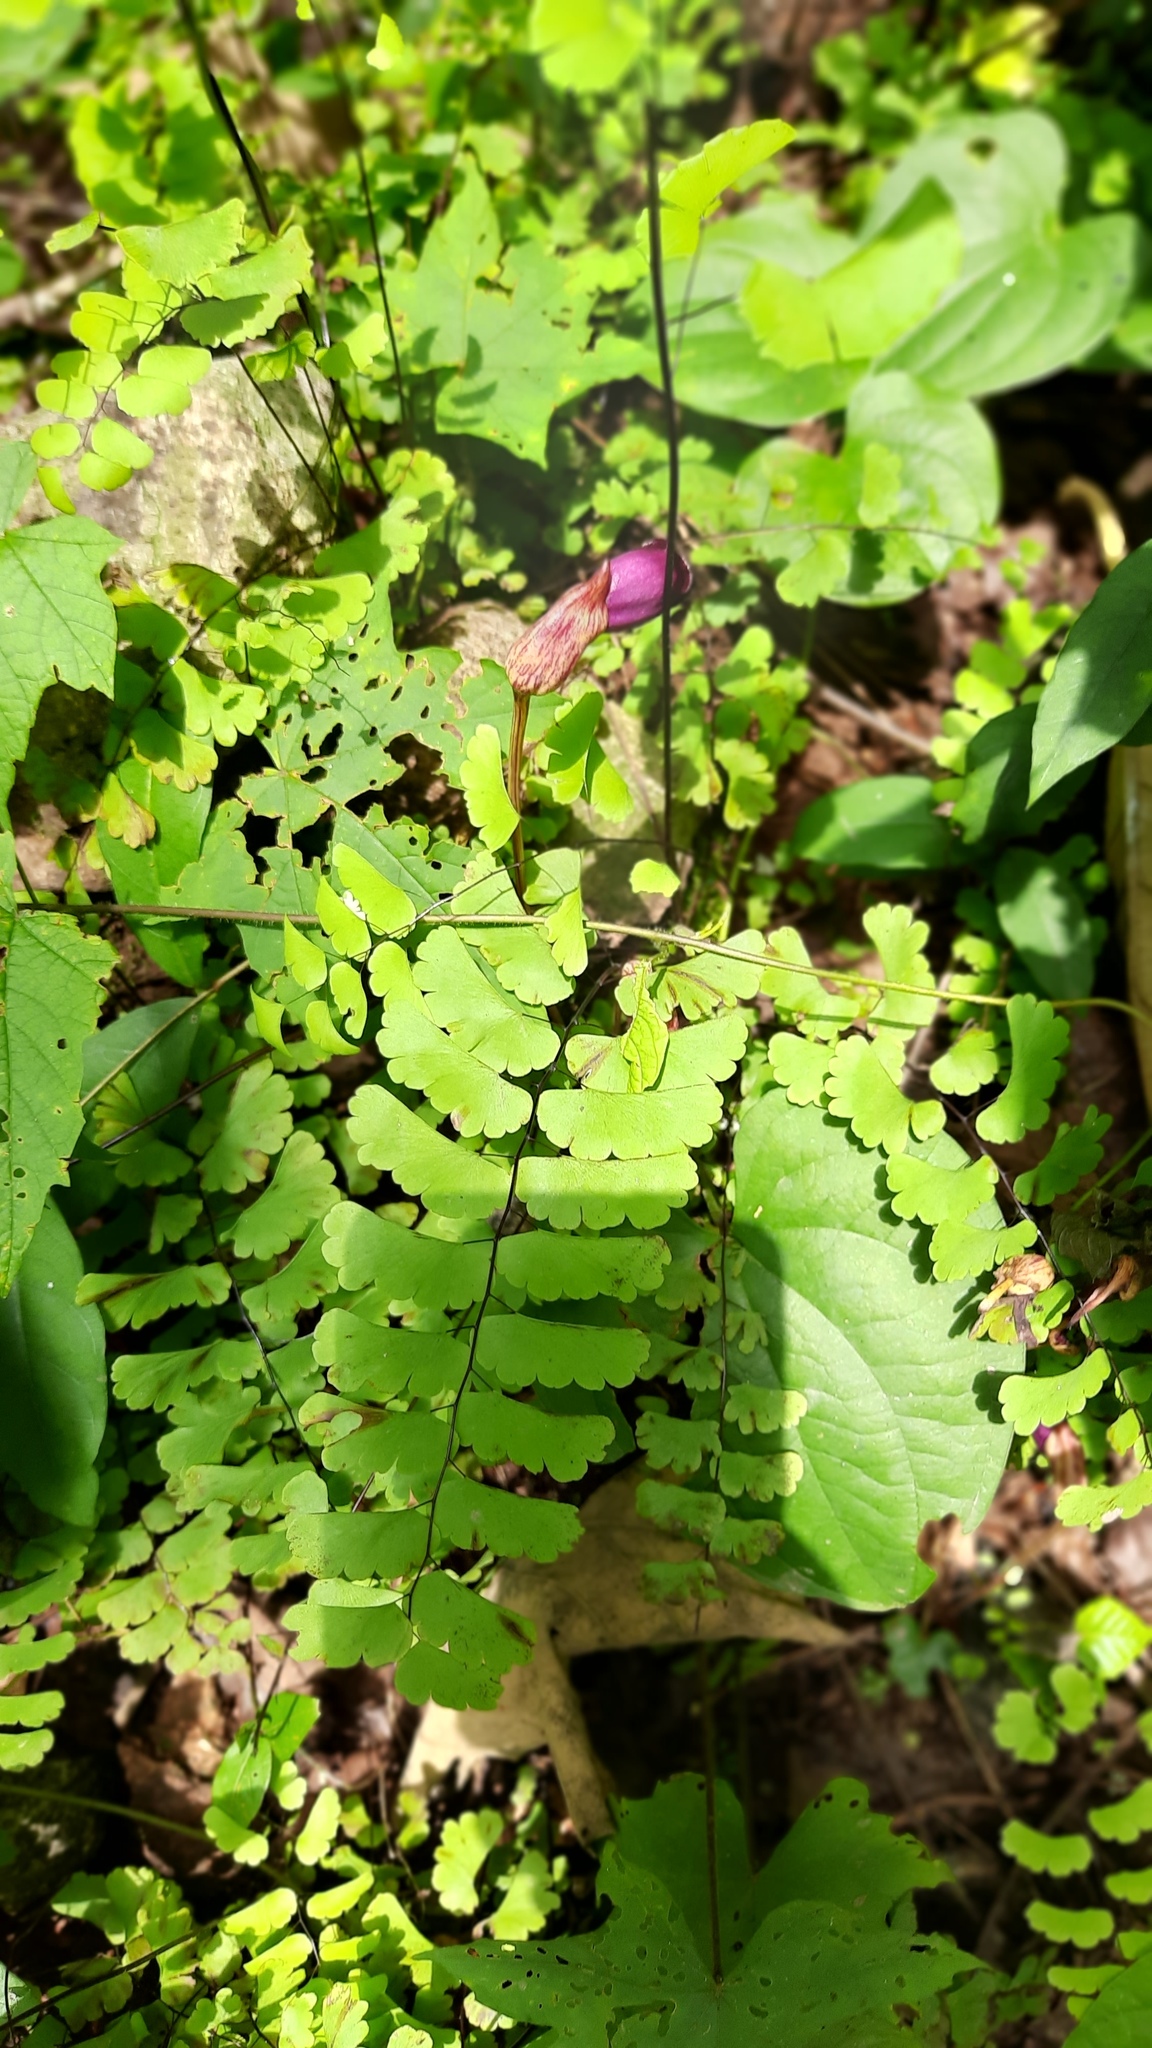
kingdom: Plantae
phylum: Tracheophyta
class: Magnoliopsida
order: Lamiales
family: Orobanchaceae
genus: Aeginetia
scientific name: Aeginetia indica
